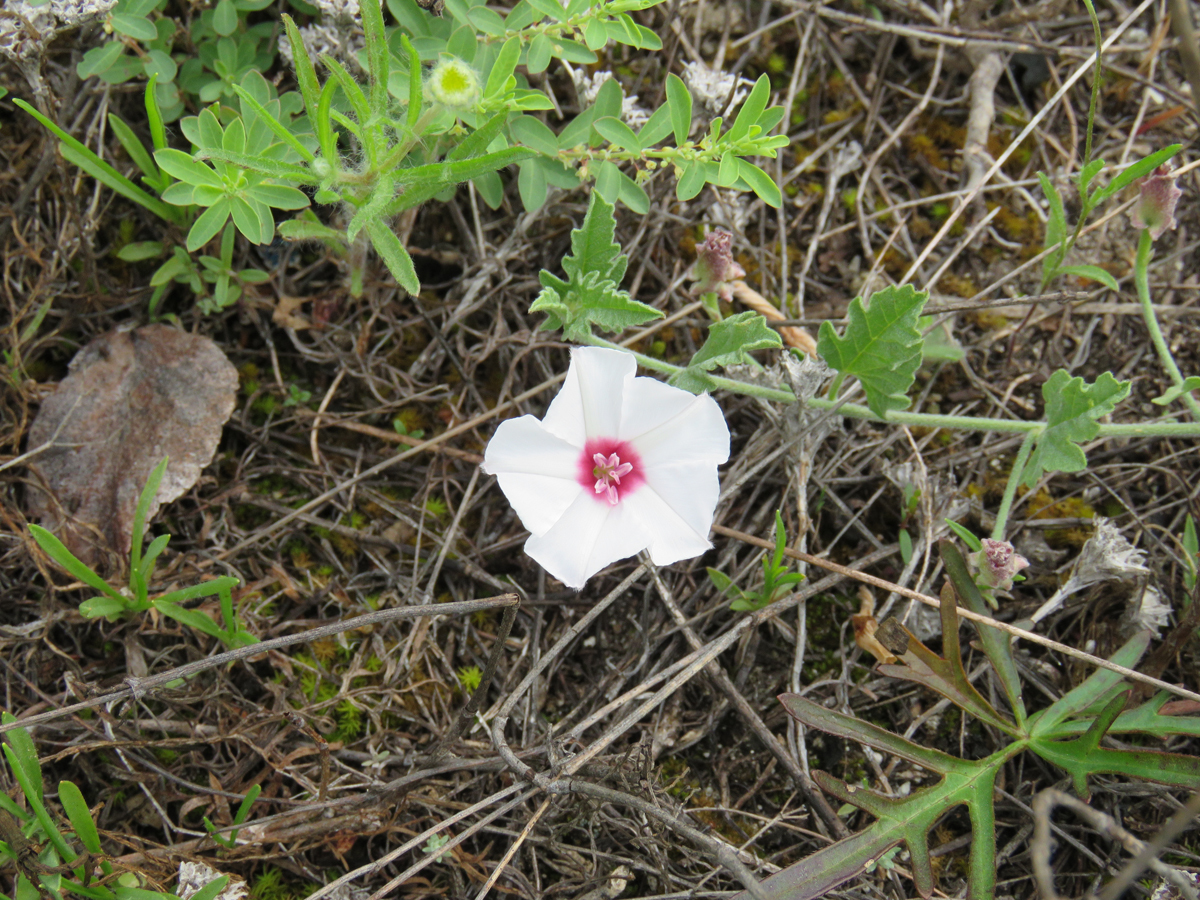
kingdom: Plantae
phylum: Tracheophyta
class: Magnoliopsida
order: Solanales
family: Convolvulaceae
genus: Convolvulus
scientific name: Convolvulus equitans
